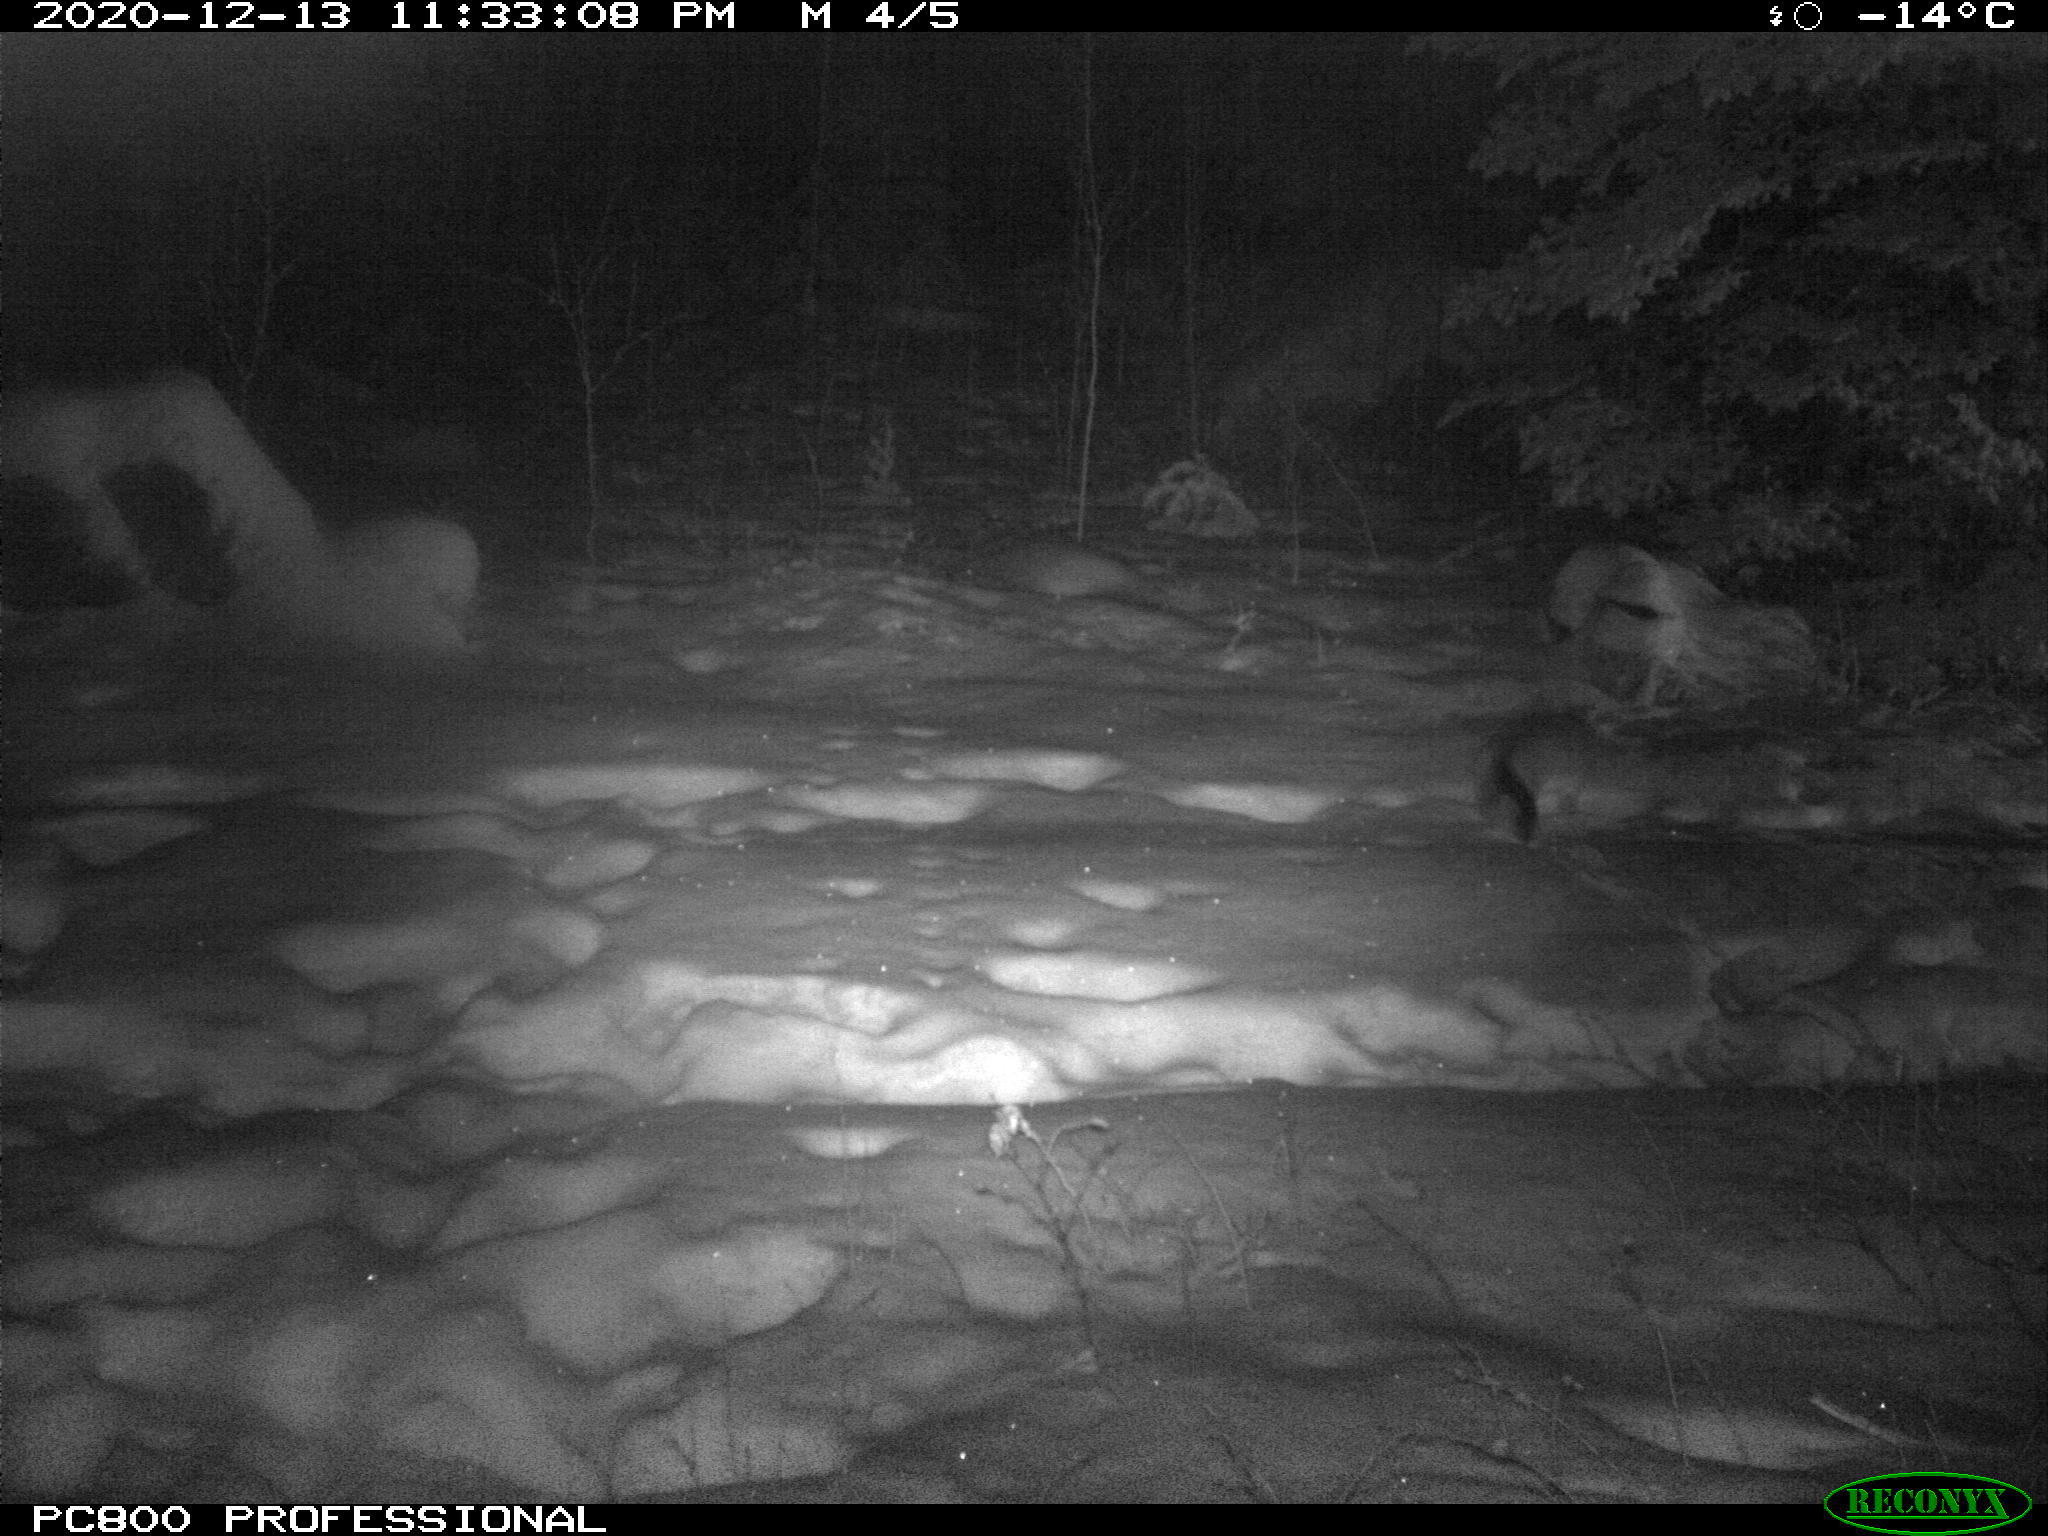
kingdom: Animalia
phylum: Chordata
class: Mammalia
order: Carnivora
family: Canidae
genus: Urocyon
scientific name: Urocyon cinereoargenteus
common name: Gray fox
